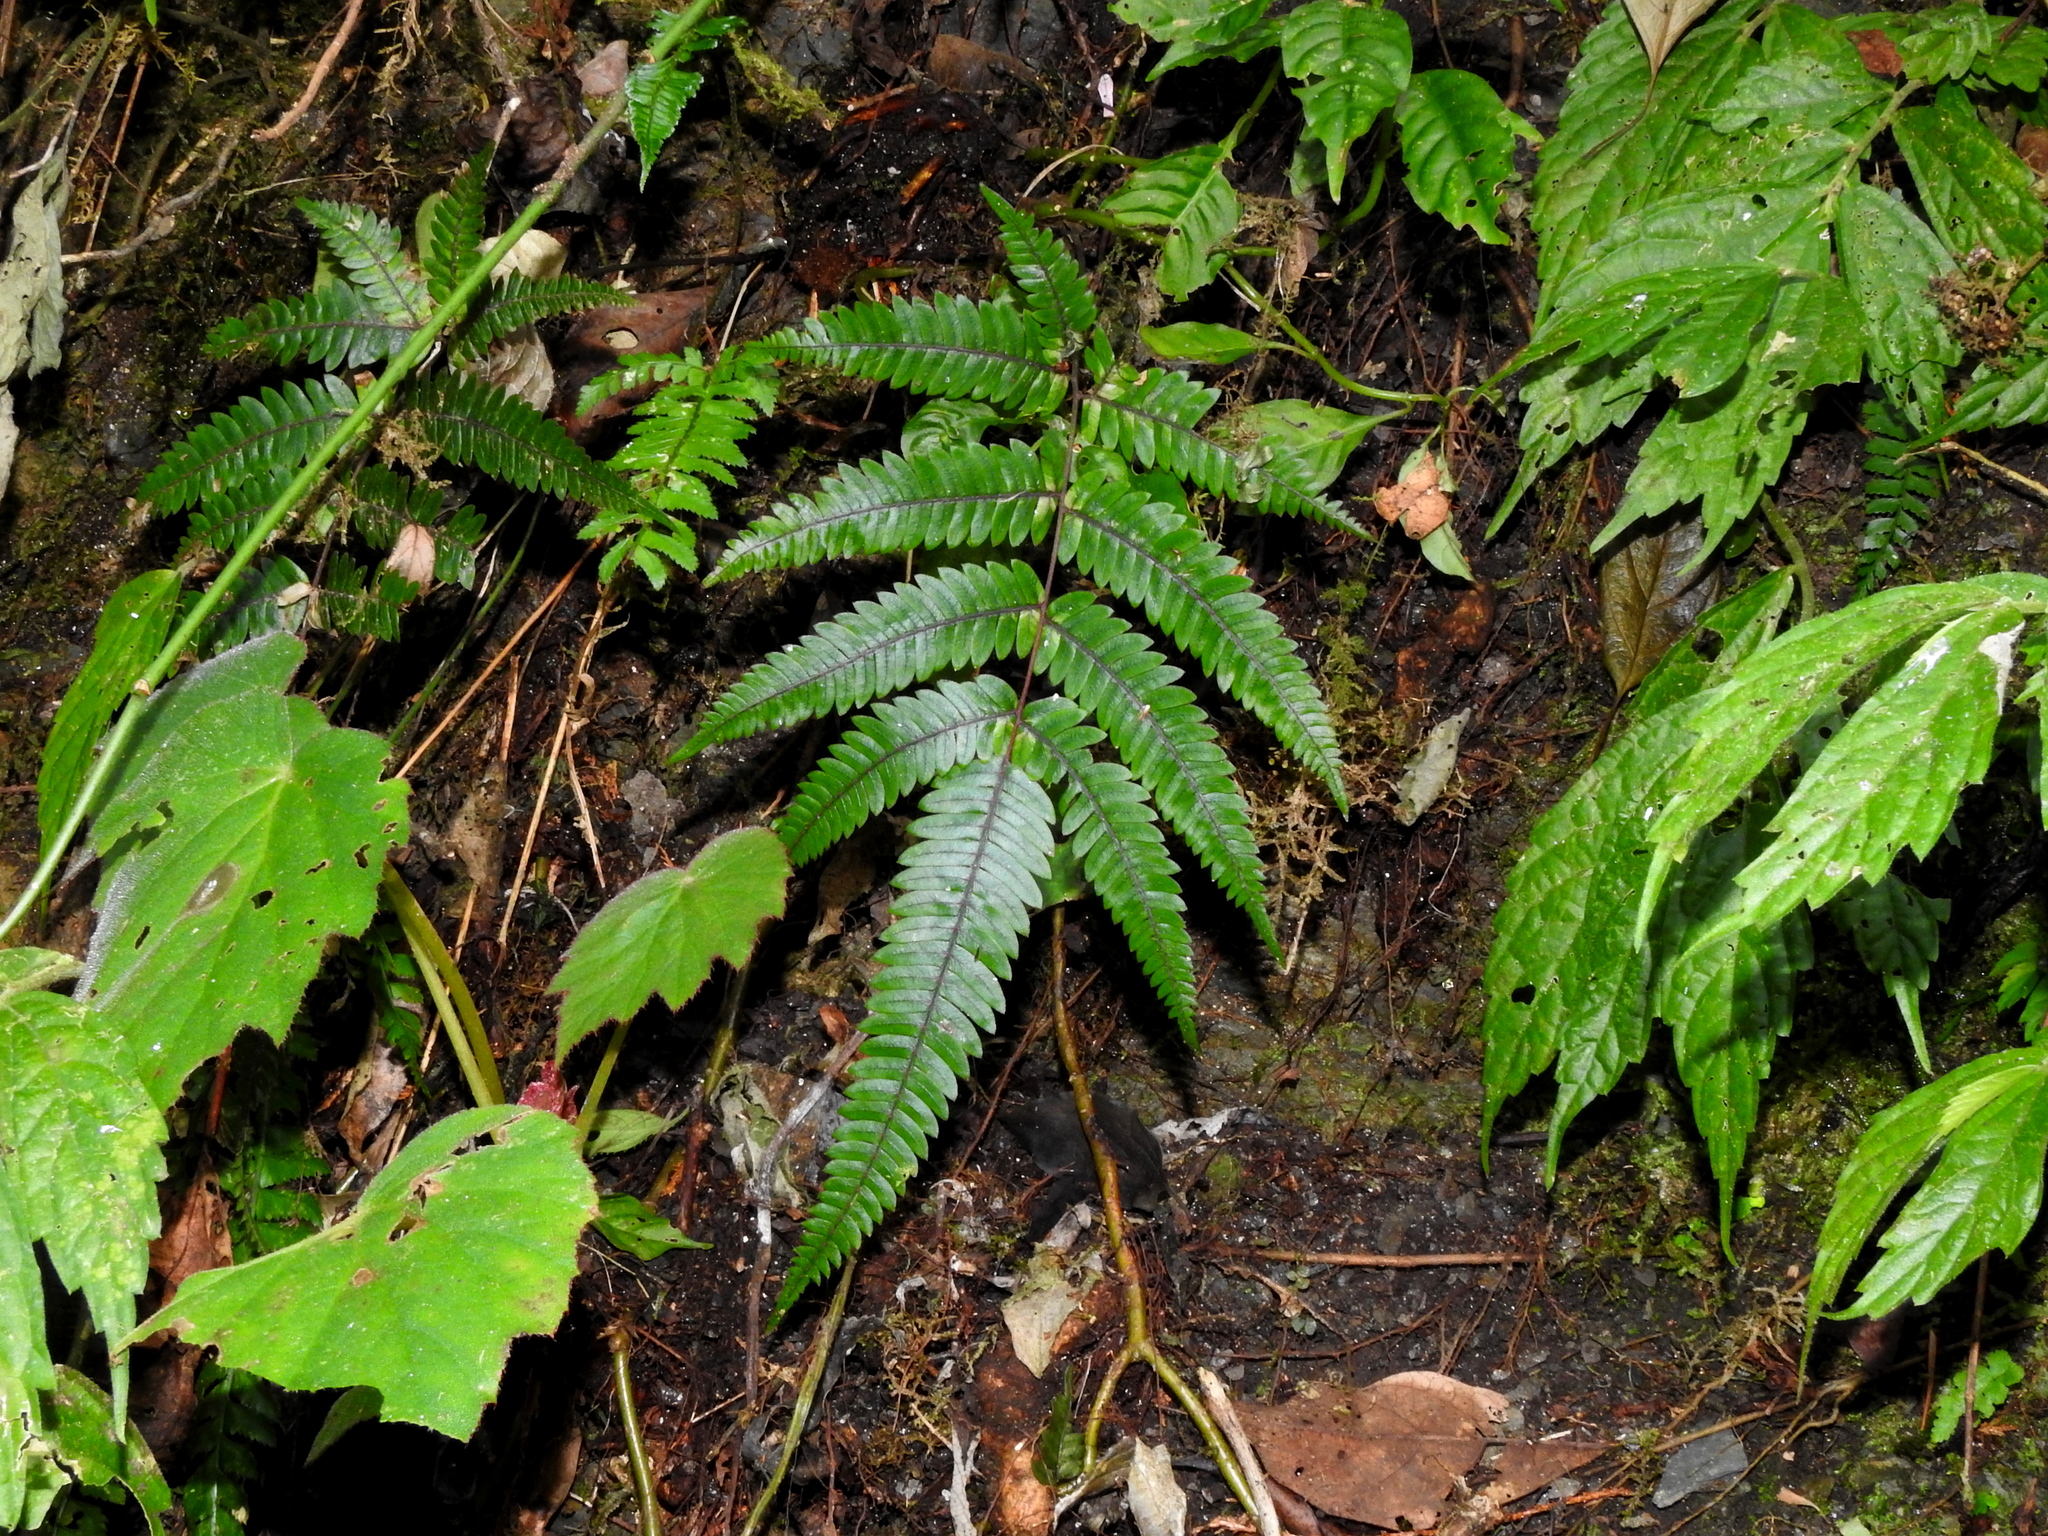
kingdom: Plantae
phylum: Tracheophyta
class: Polypodiopsida
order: Polypodiales
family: Pteridaceae
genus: Pteris
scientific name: Pteris normalis
